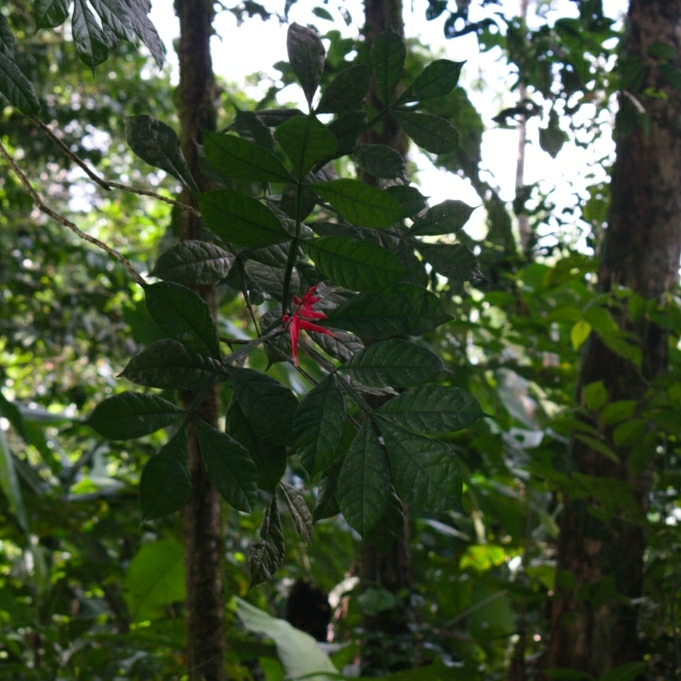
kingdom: Plantae
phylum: Tracheophyta
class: Magnoliopsida
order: Sapindales
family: Simaroubaceae
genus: Quassia
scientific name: Quassia amara
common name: Quassia
